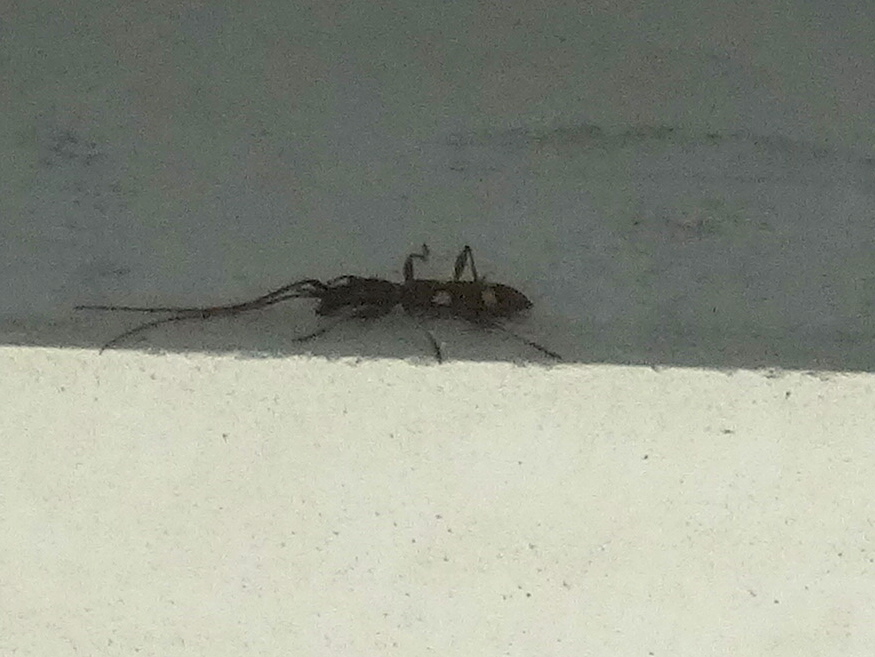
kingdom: Animalia
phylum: Arthropoda
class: Insecta
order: Coleoptera
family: Cerambycidae
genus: Neocompsa
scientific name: Neocompsa
